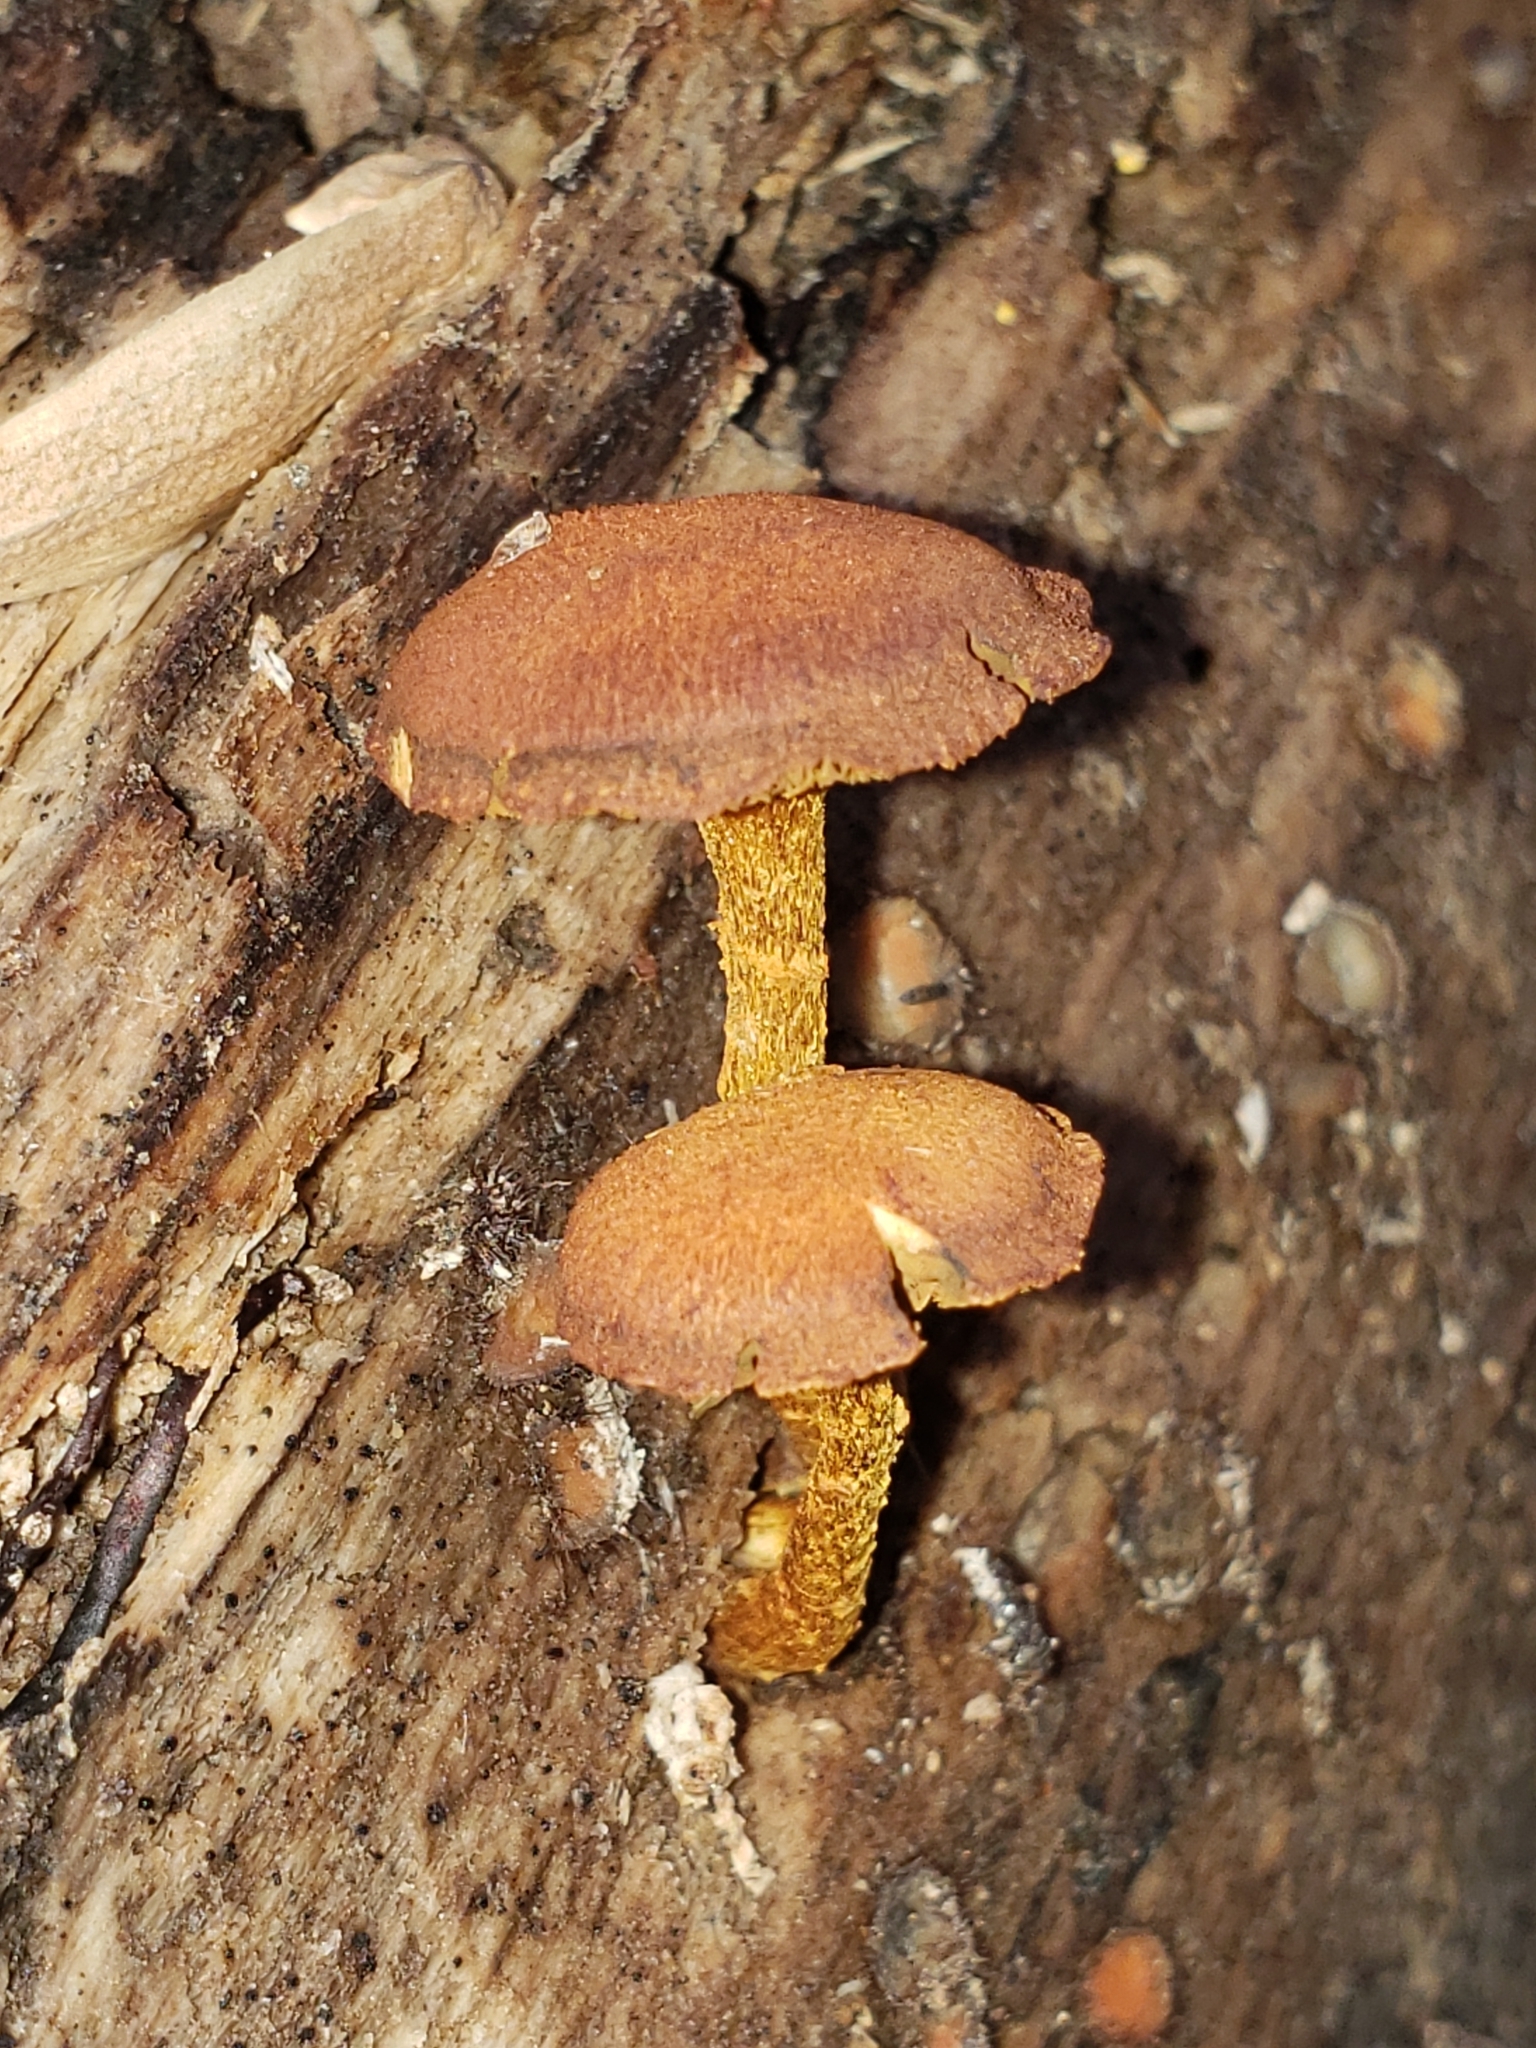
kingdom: Fungi
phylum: Basidiomycota
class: Agaricomycetes
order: Agaricales
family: Tubariaceae
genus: Flammulaster
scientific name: Flammulaster erinaceellus
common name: Powder-scale pholiota
